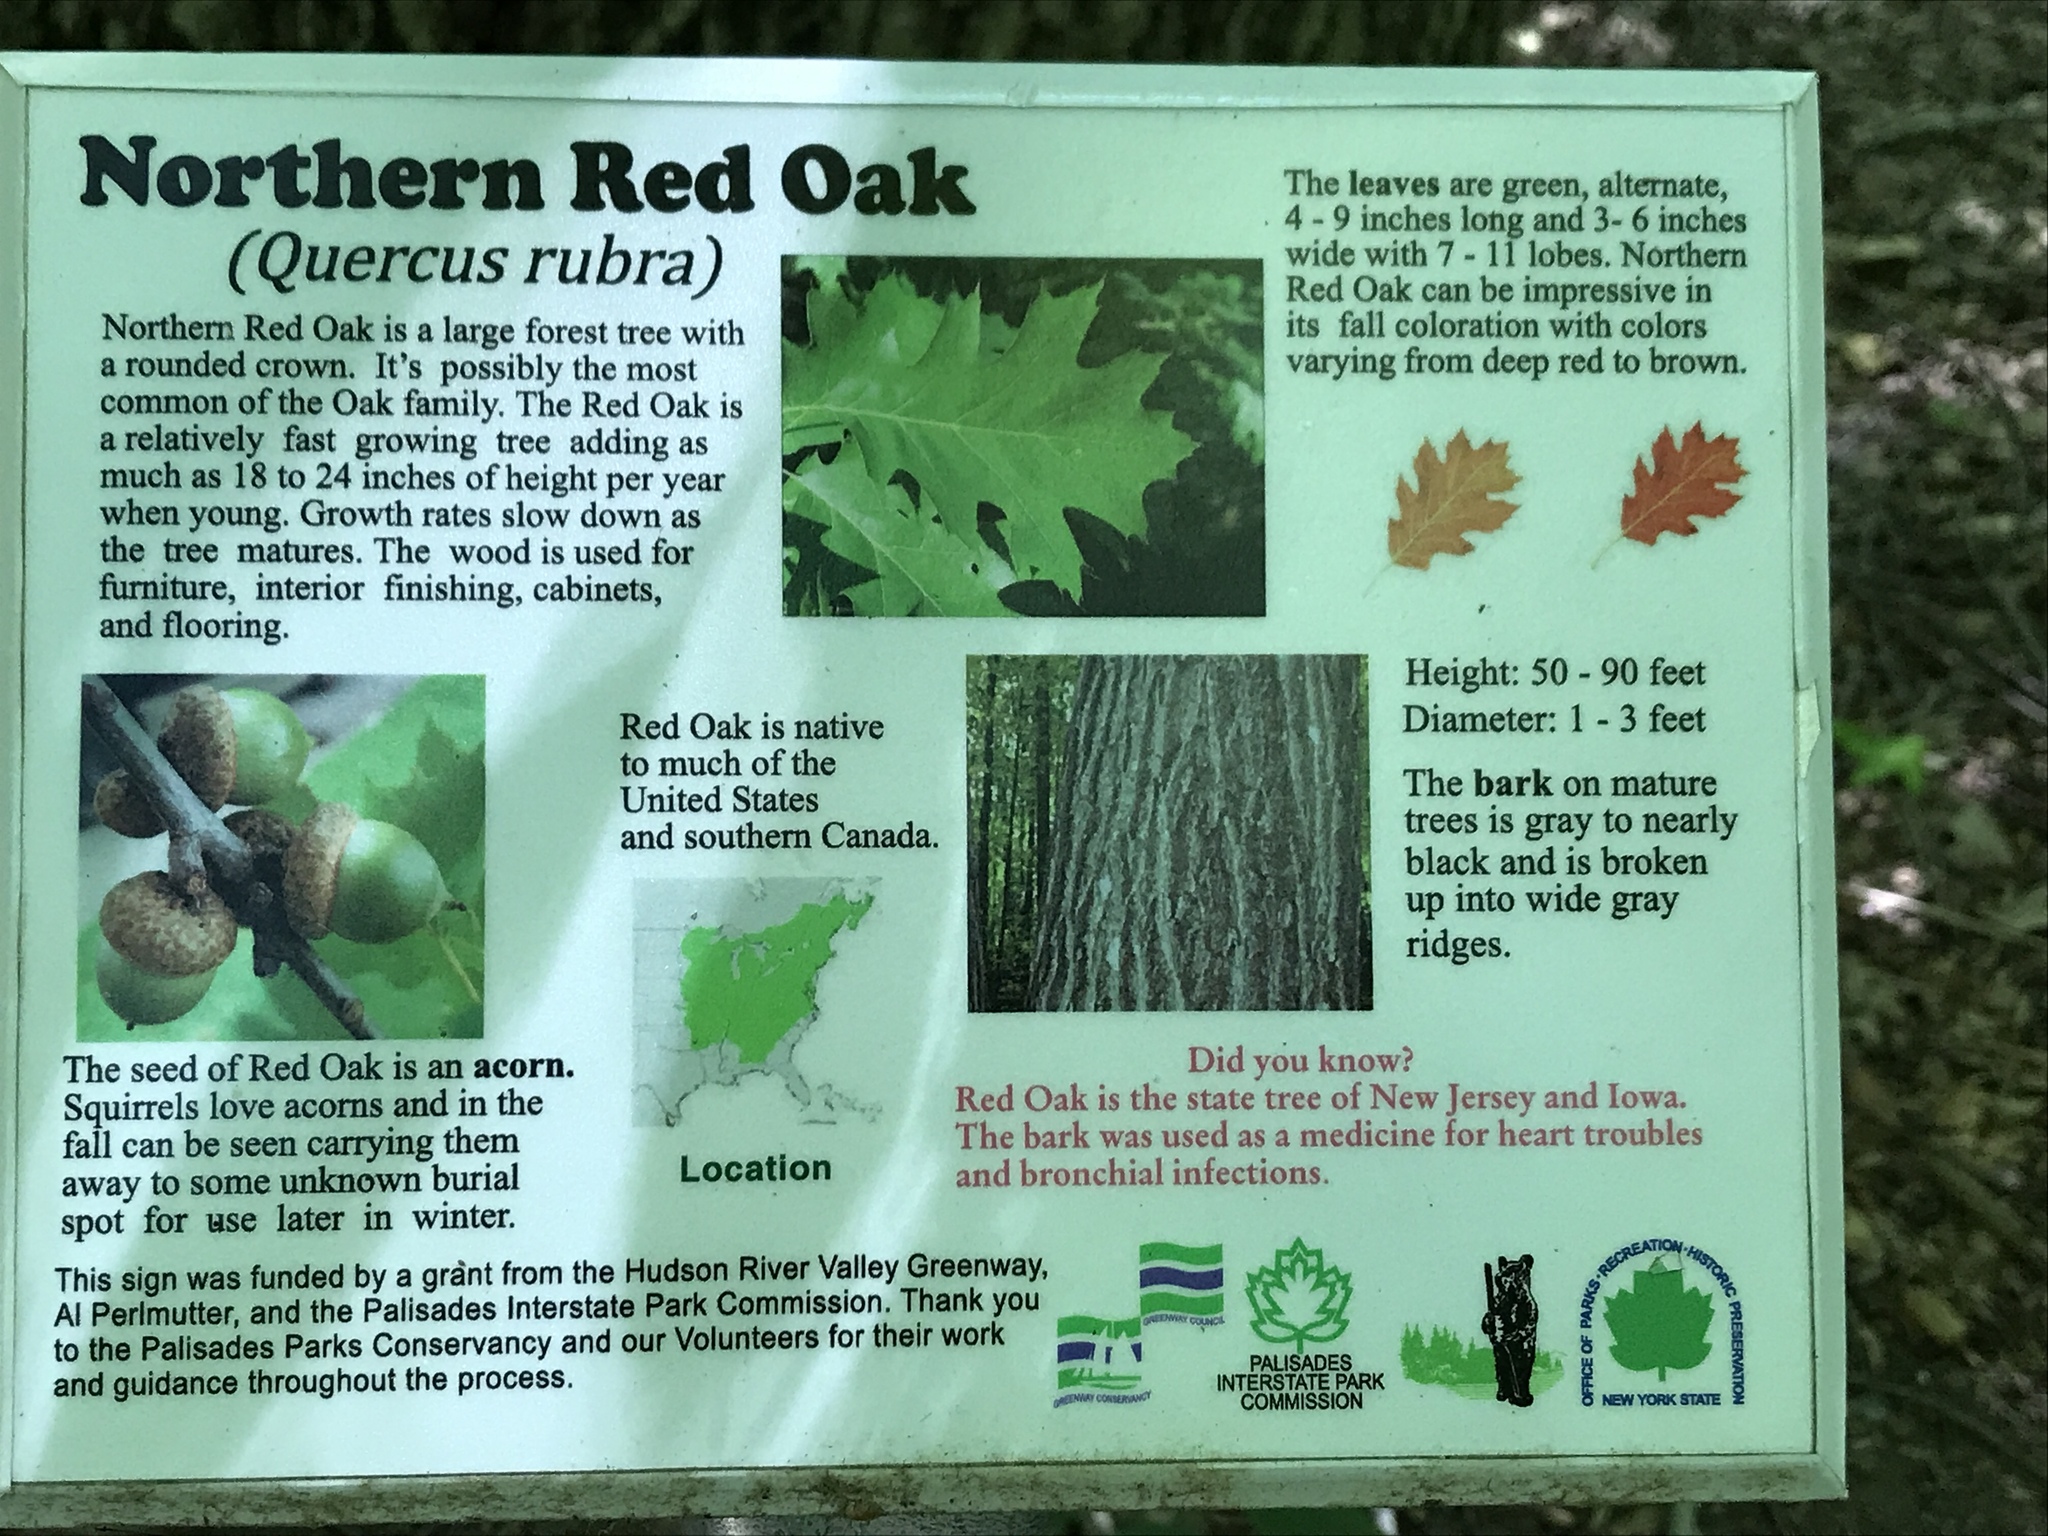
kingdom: Plantae
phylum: Tracheophyta
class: Magnoliopsida
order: Fagales
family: Fagaceae
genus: Quercus
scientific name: Quercus rubra
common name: Red oak
